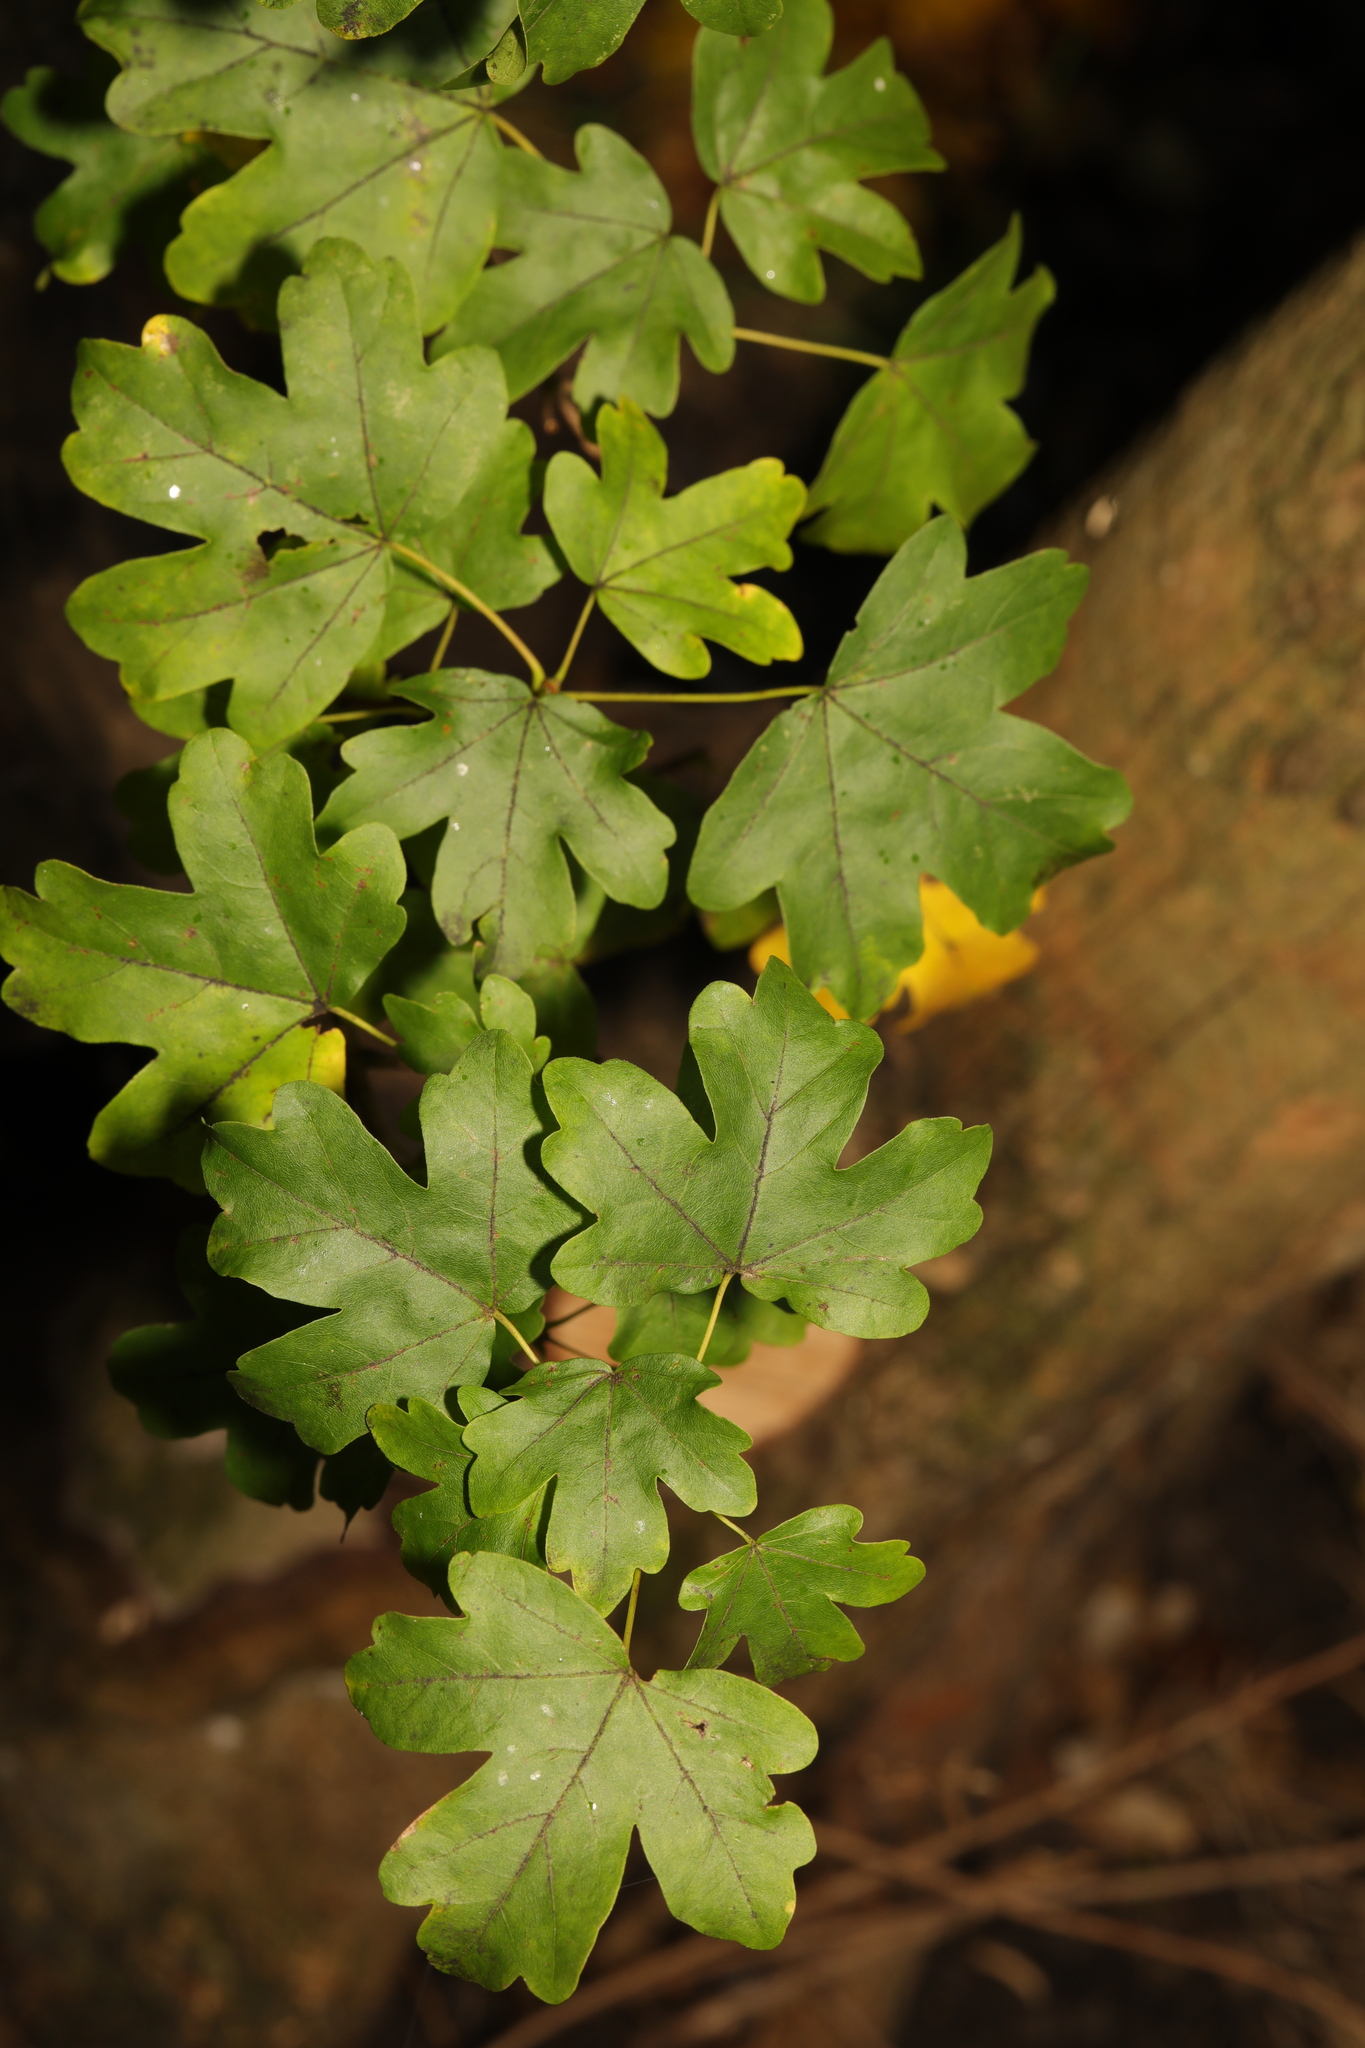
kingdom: Plantae
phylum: Tracheophyta
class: Magnoliopsida
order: Sapindales
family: Sapindaceae
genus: Acer
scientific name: Acer campestre
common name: Field maple
